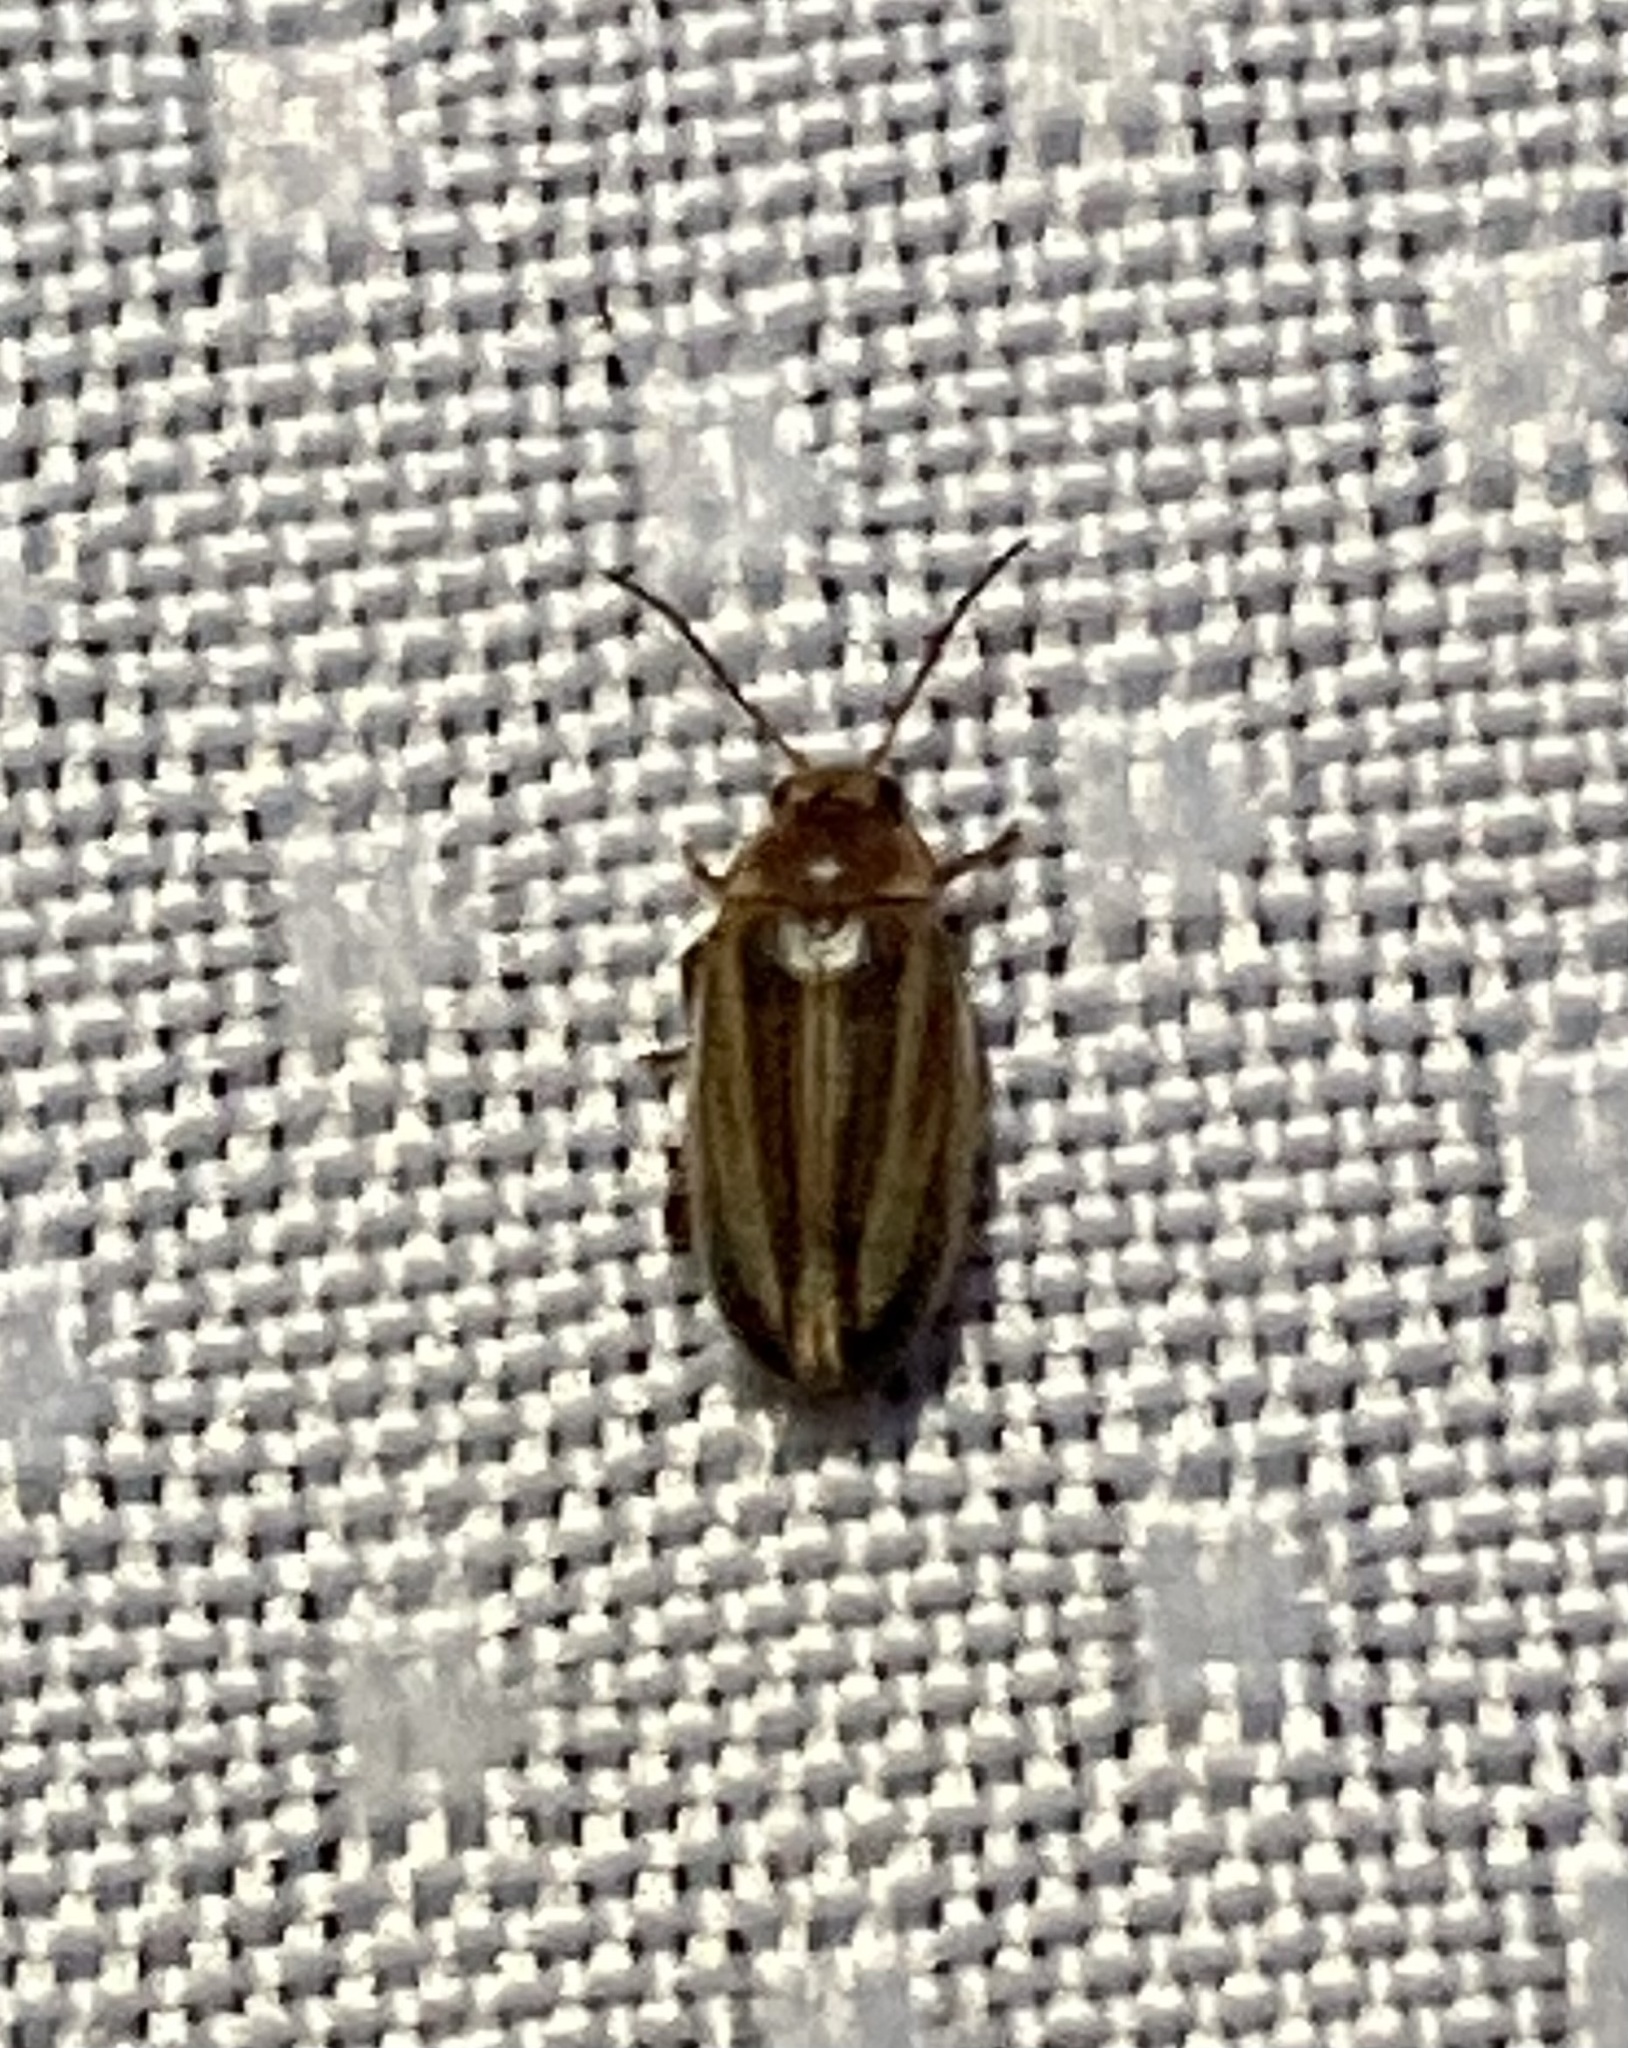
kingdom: Animalia
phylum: Arthropoda
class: Insecta
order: Coleoptera
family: Scirtidae
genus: Scirtes
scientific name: Scirtes oblongus
